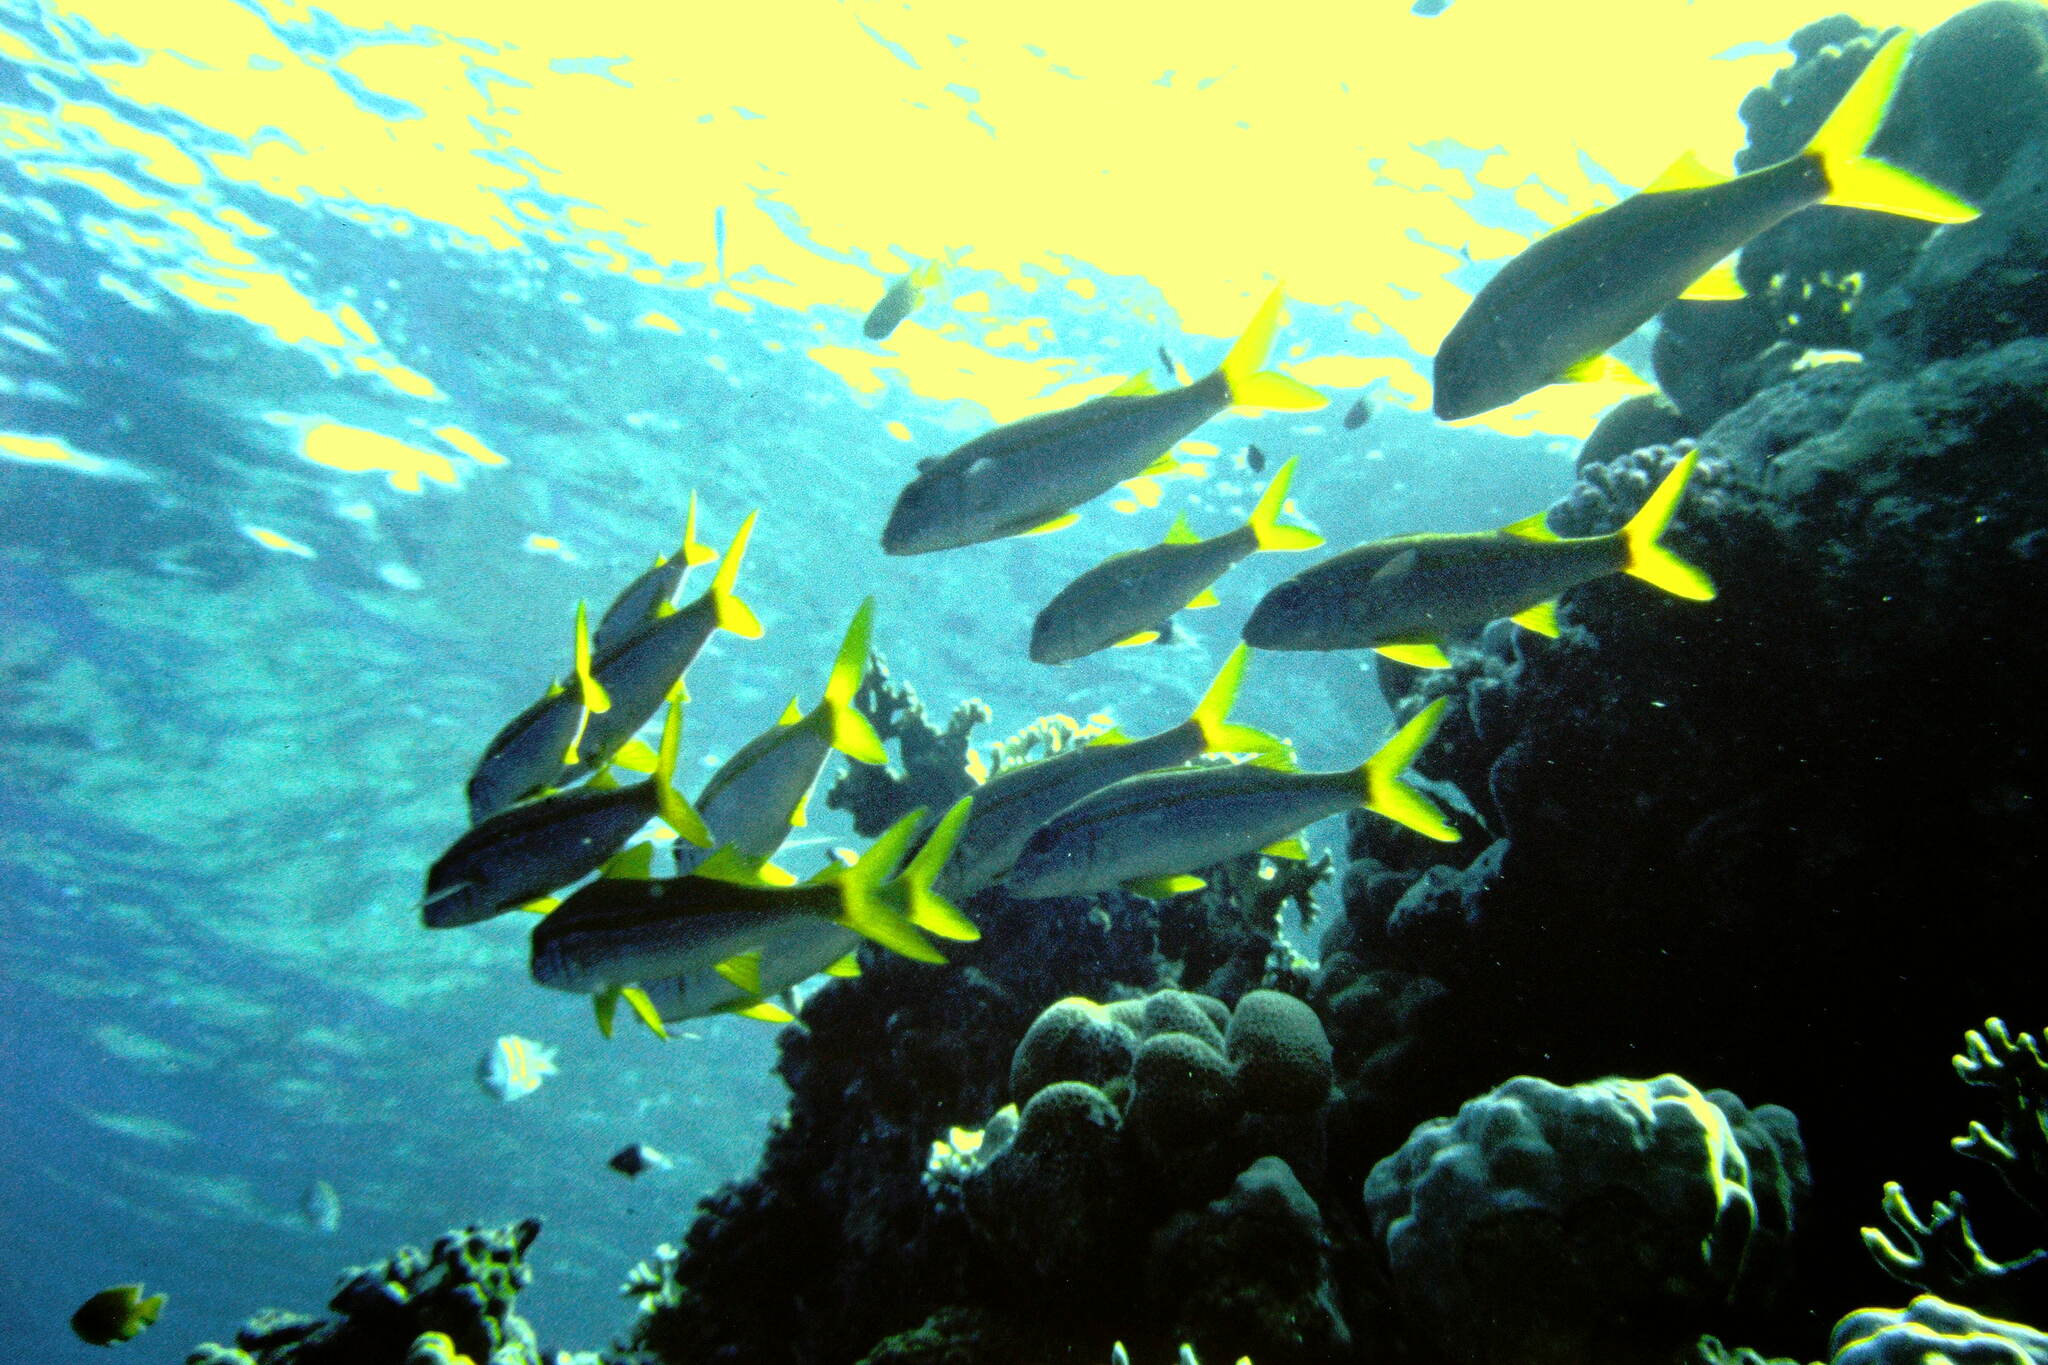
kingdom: Animalia
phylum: Chordata
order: Perciformes
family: Mullidae
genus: Mulloidichthys
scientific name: Mulloidichthys vanicolensis
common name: Yellowfin goatfish
